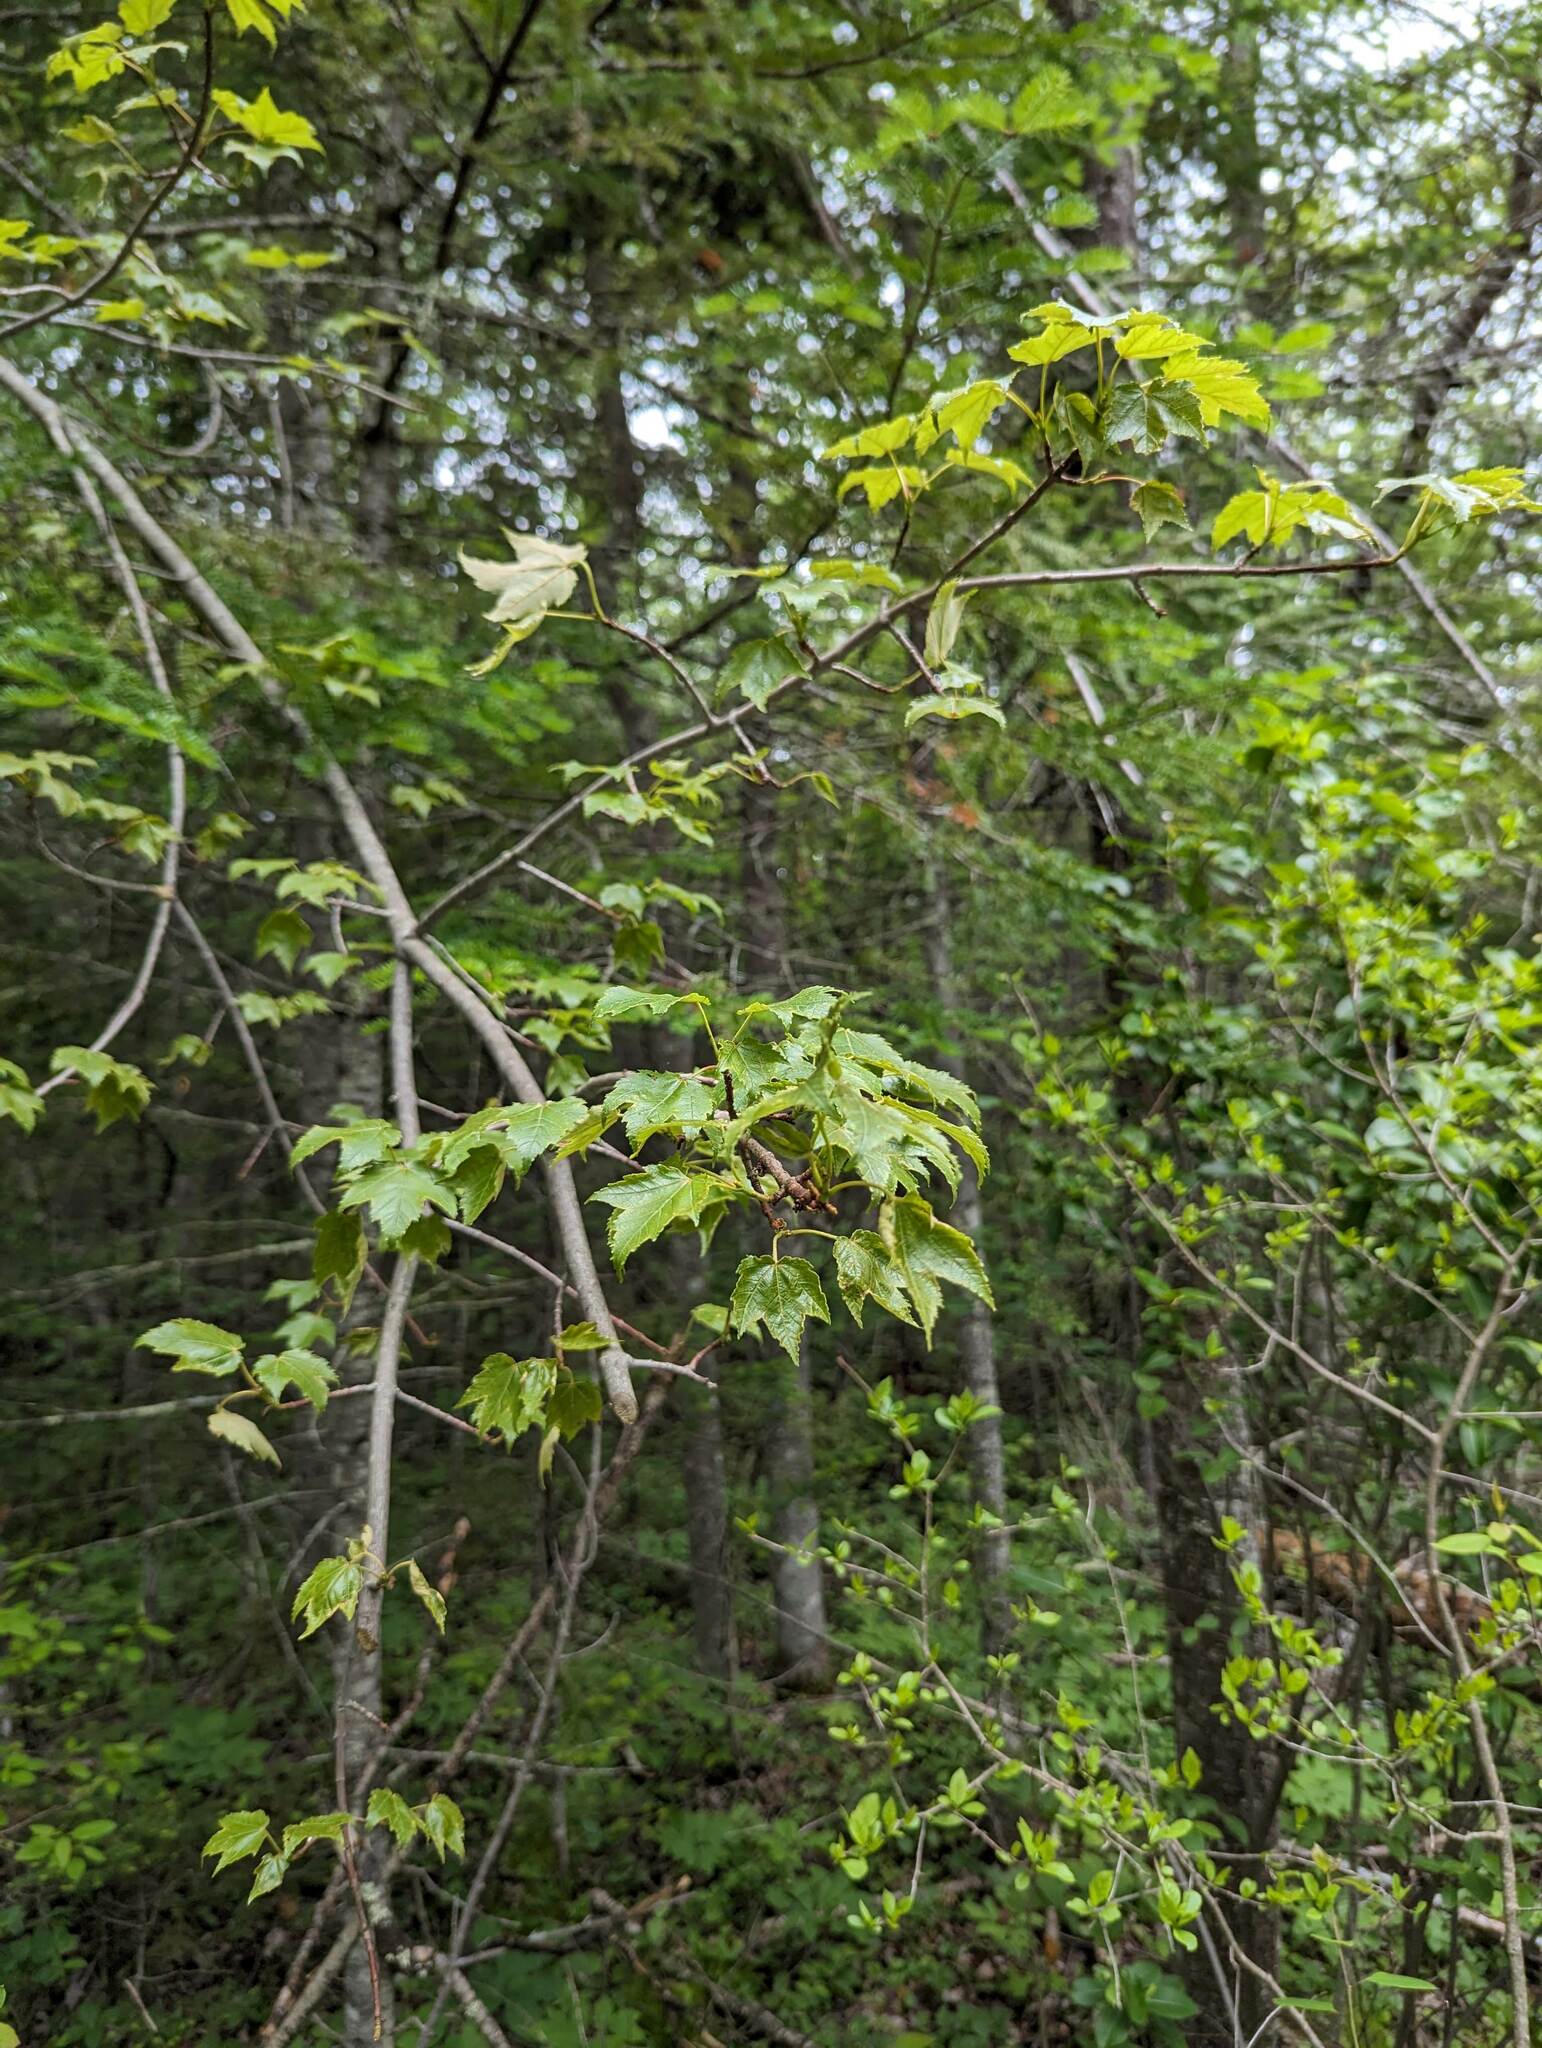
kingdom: Plantae
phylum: Tracheophyta
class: Magnoliopsida
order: Sapindales
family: Sapindaceae
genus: Acer
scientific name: Acer rubrum
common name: Red maple
